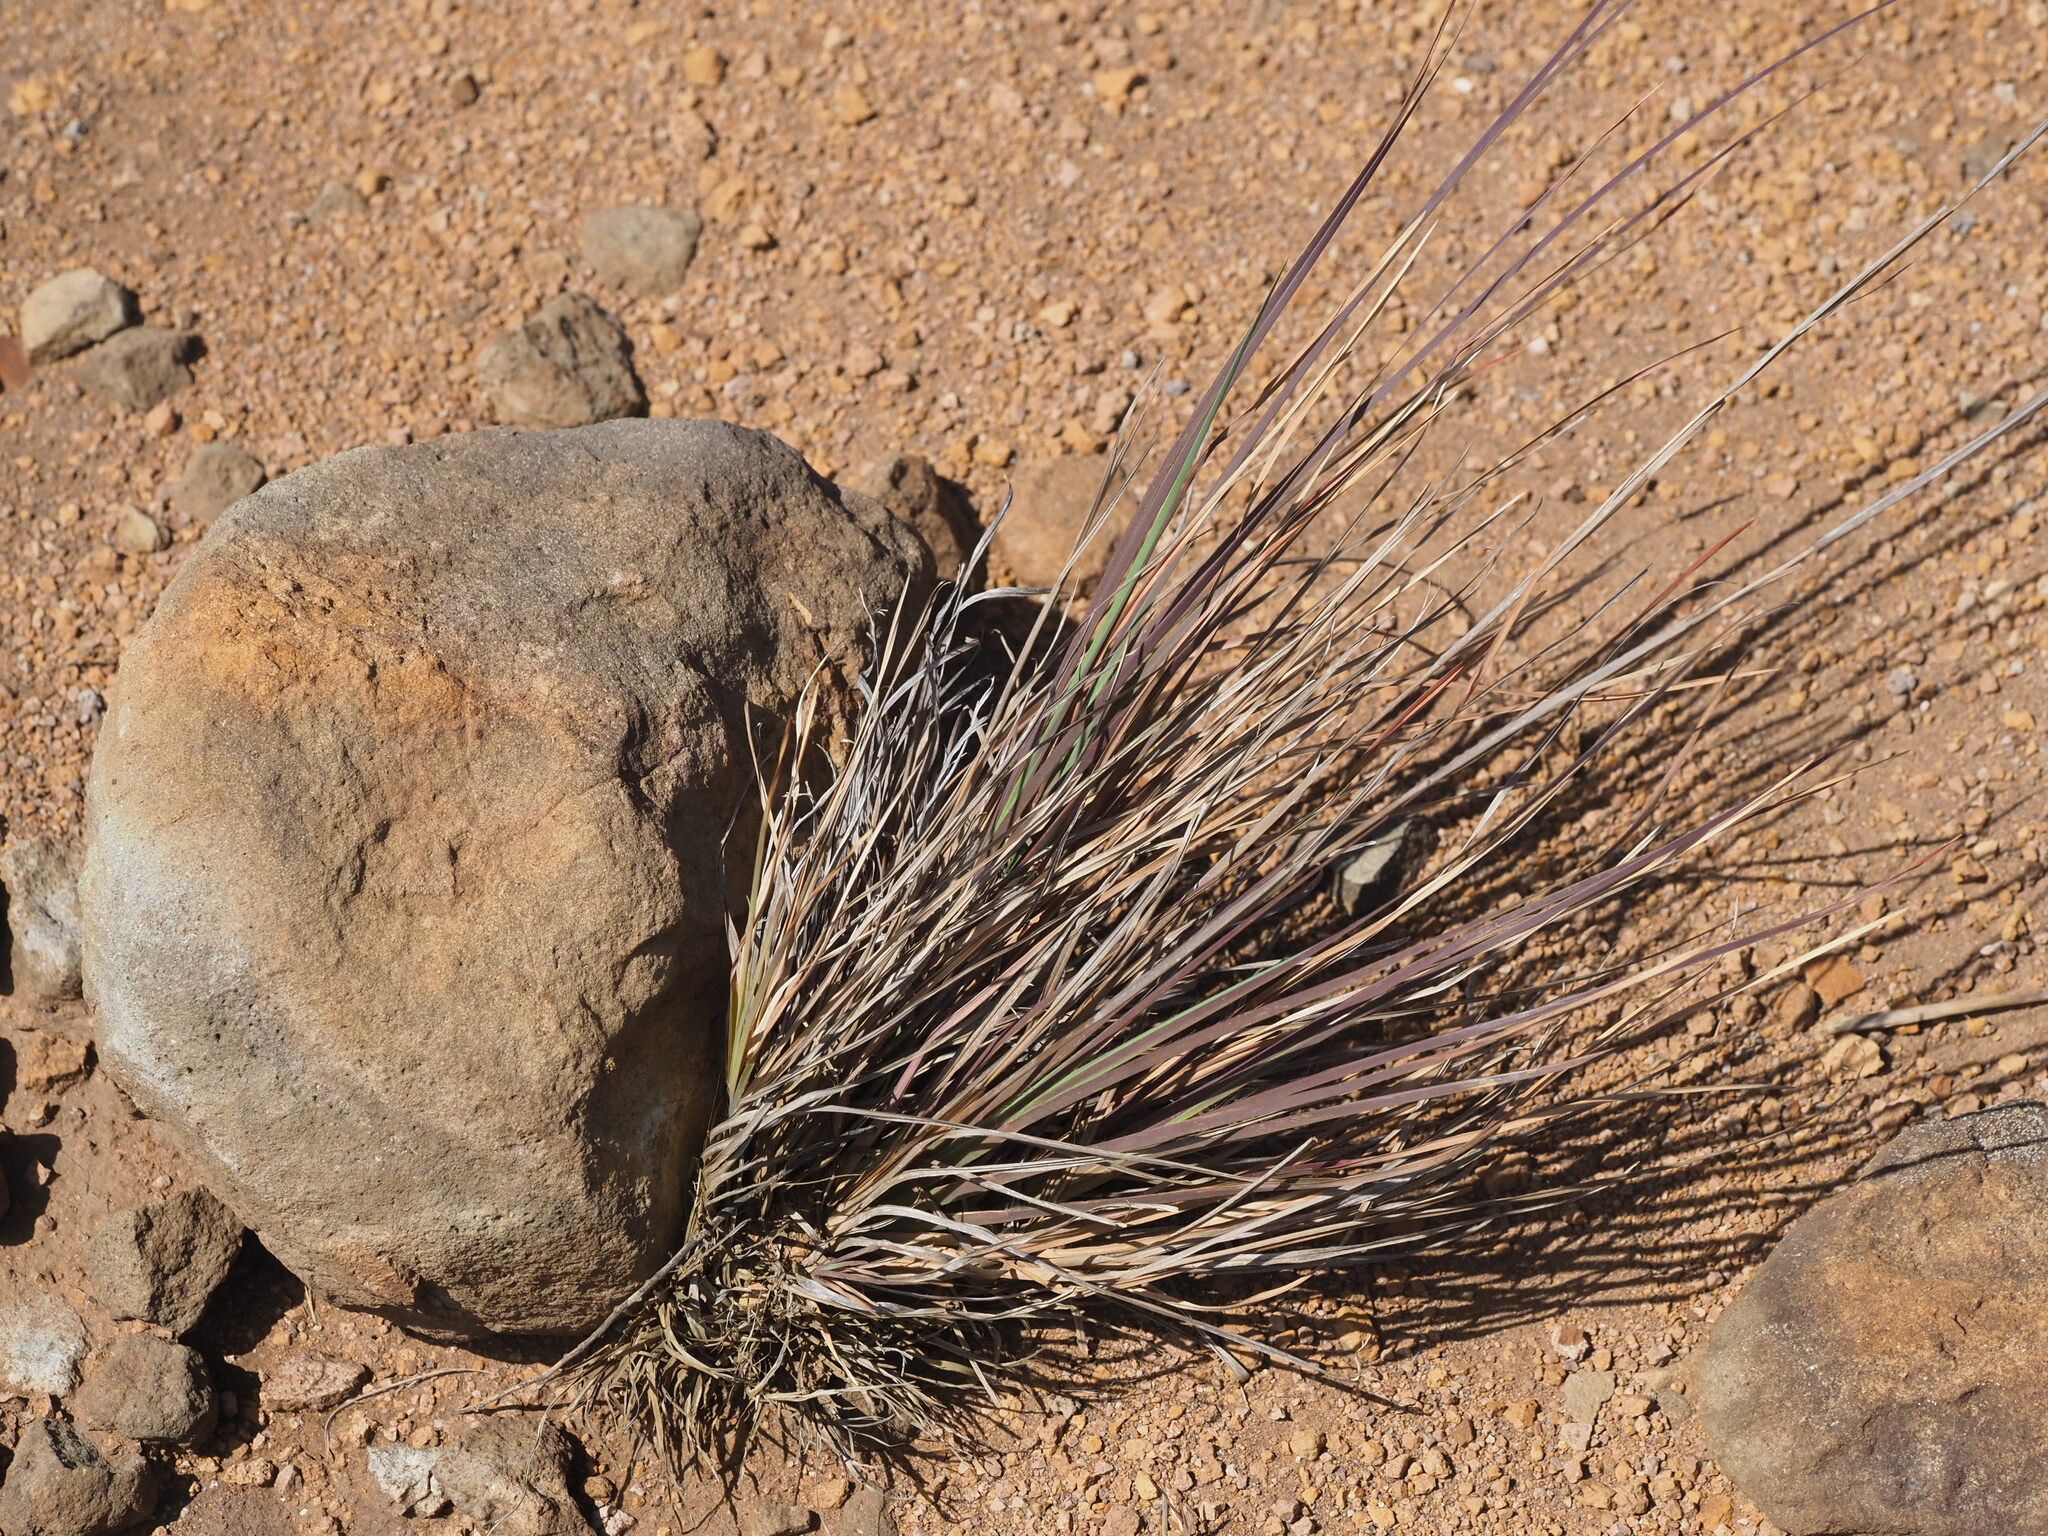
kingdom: Plantae
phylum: Tracheophyta
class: Liliopsida
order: Poales
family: Poaceae
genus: Heteropogon
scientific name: Heteropogon contortus
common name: Tanglehead
